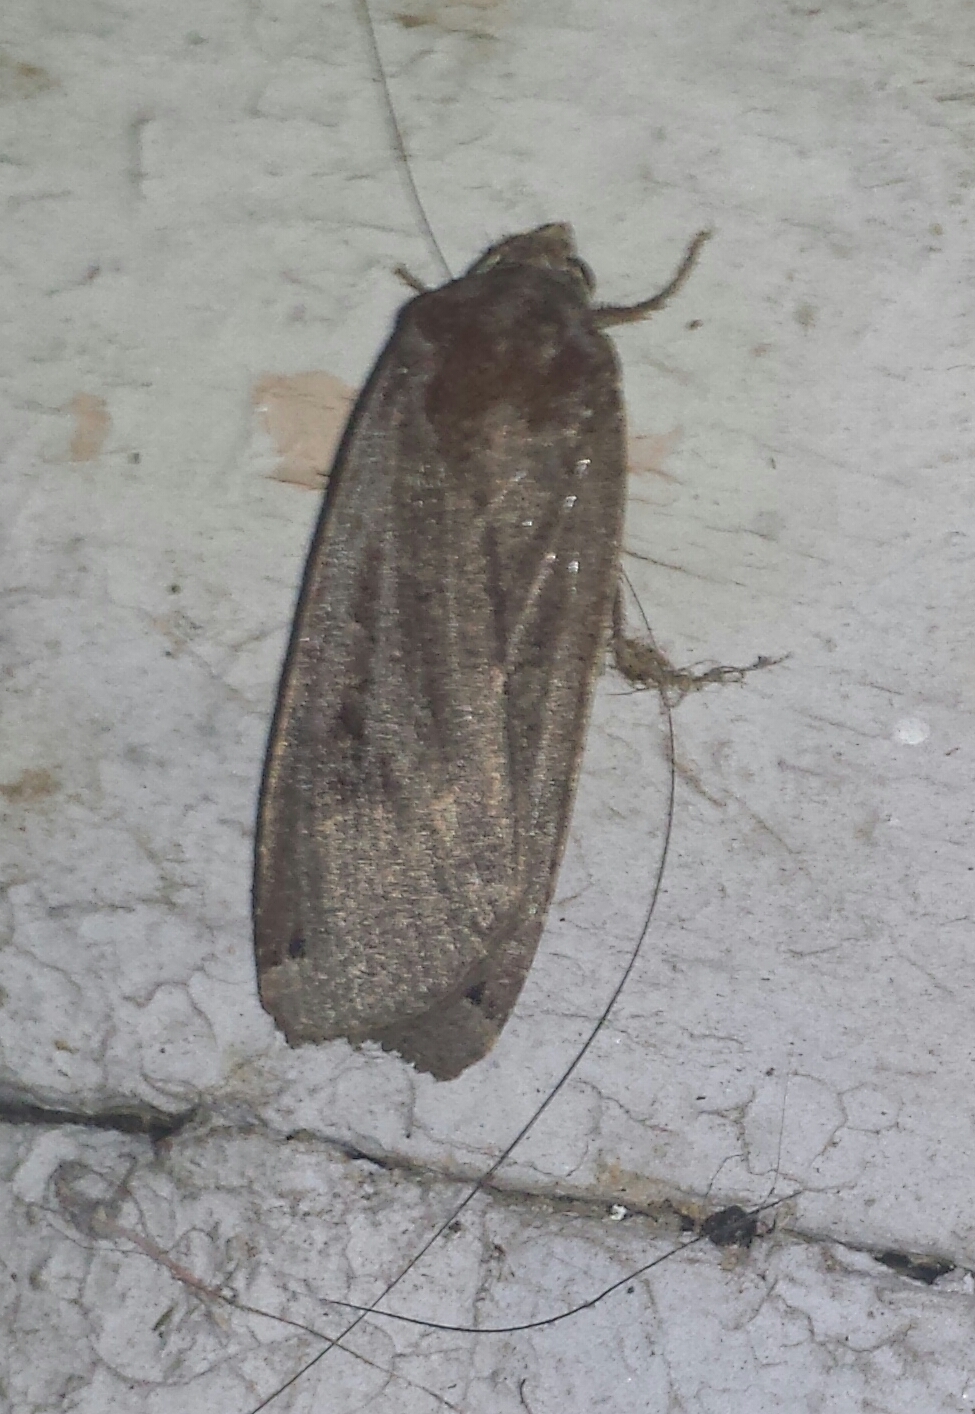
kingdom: Animalia
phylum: Arthropoda
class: Insecta
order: Lepidoptera
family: Noctuidae
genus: Noctua
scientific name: Noctua pronuba
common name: Large yellow underwing
